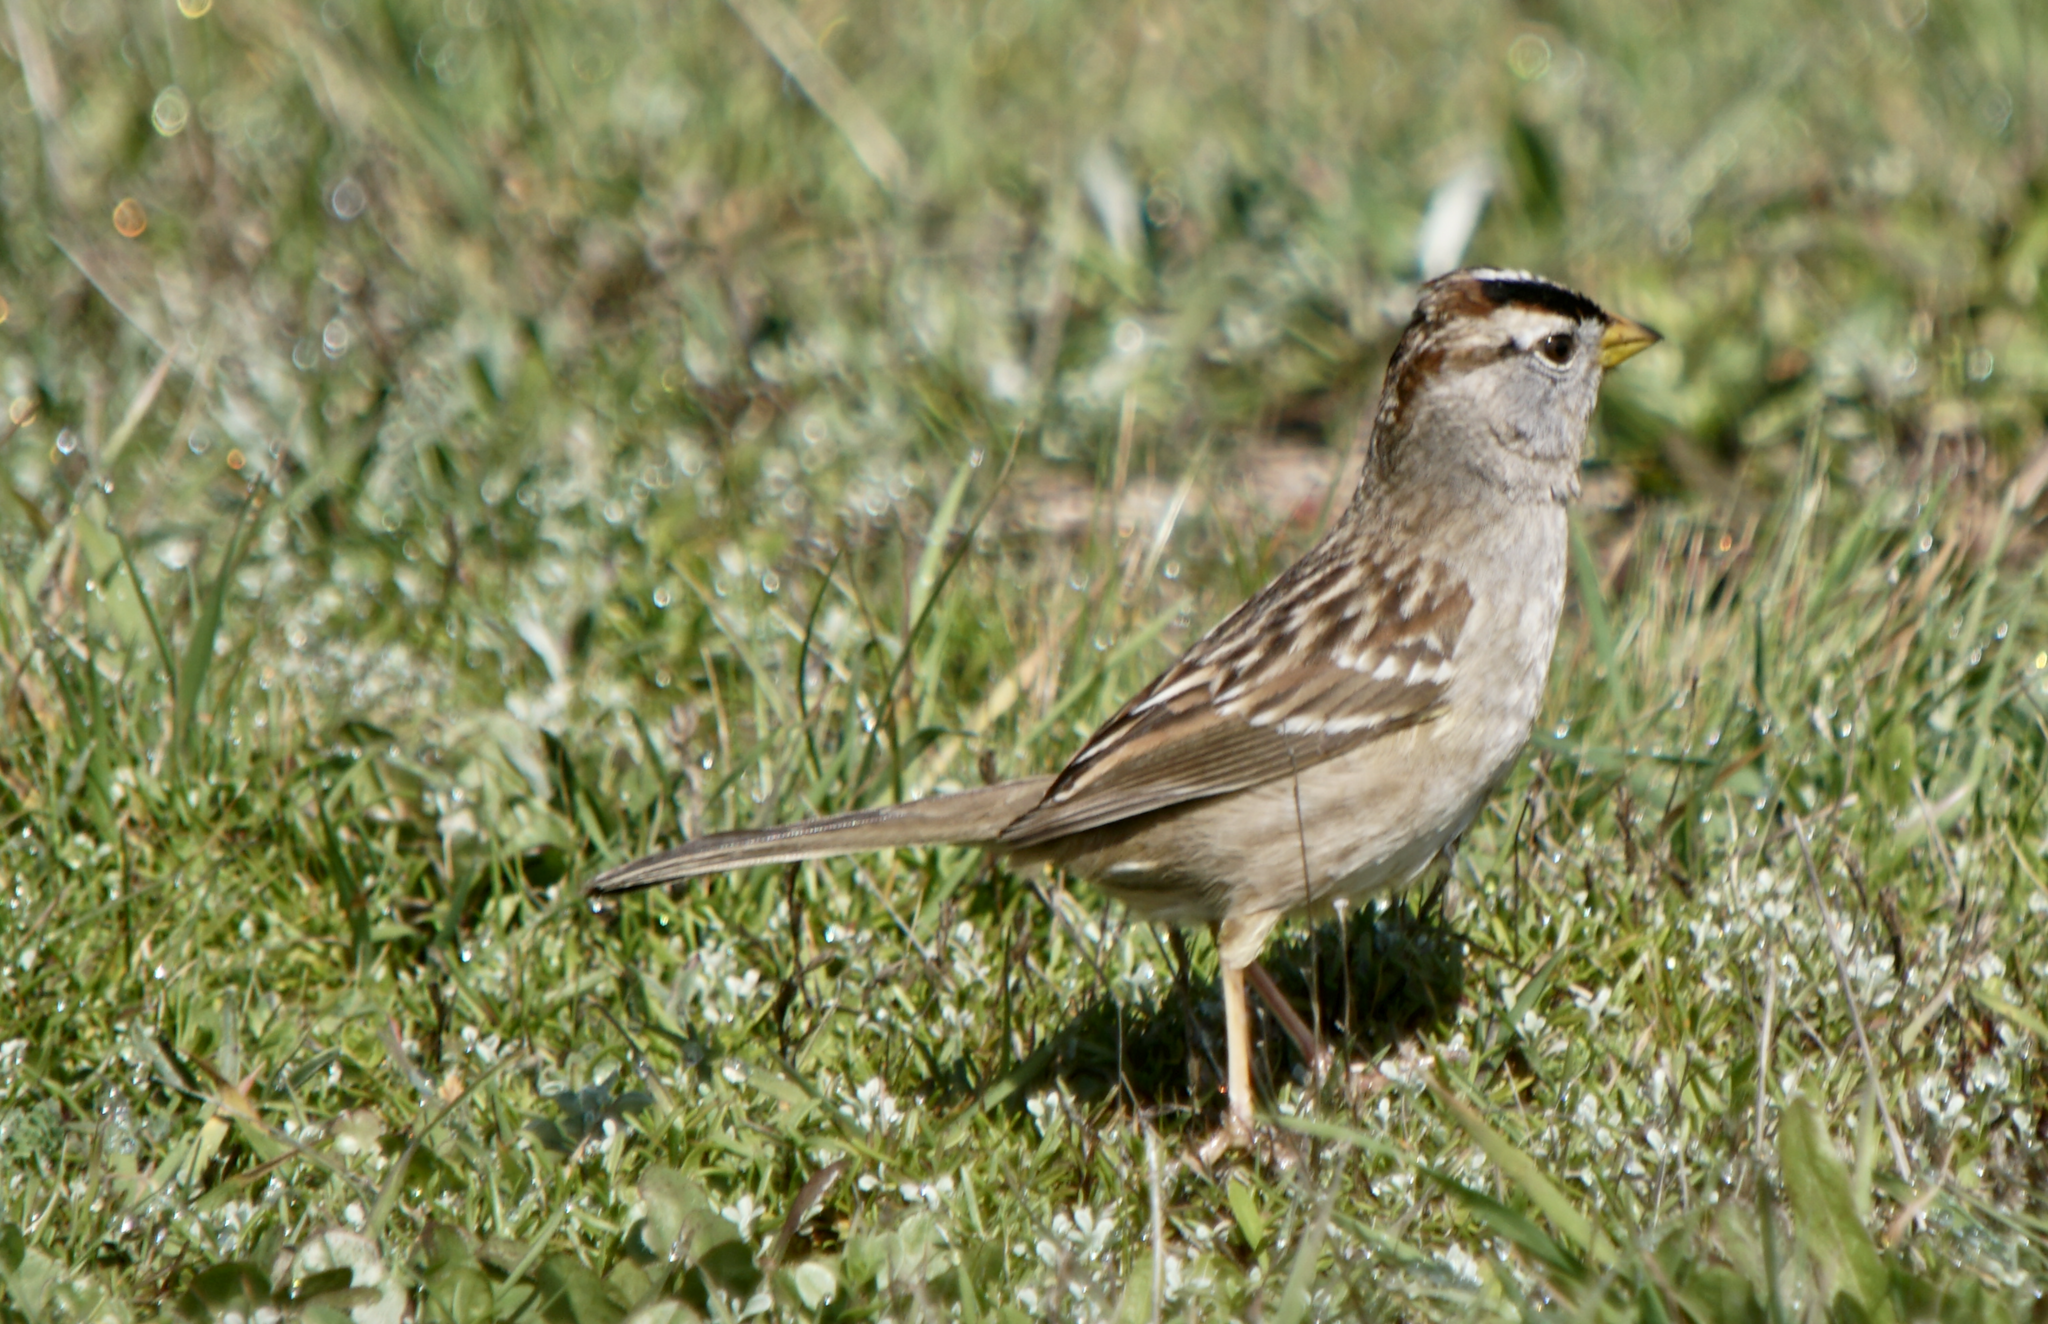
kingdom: Animalia
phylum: Chordata
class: Aves
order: Passeriformes
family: Passerellidae
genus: Zonotrichia
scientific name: Zonotrichia leucophrys
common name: White-crowned sparrow
